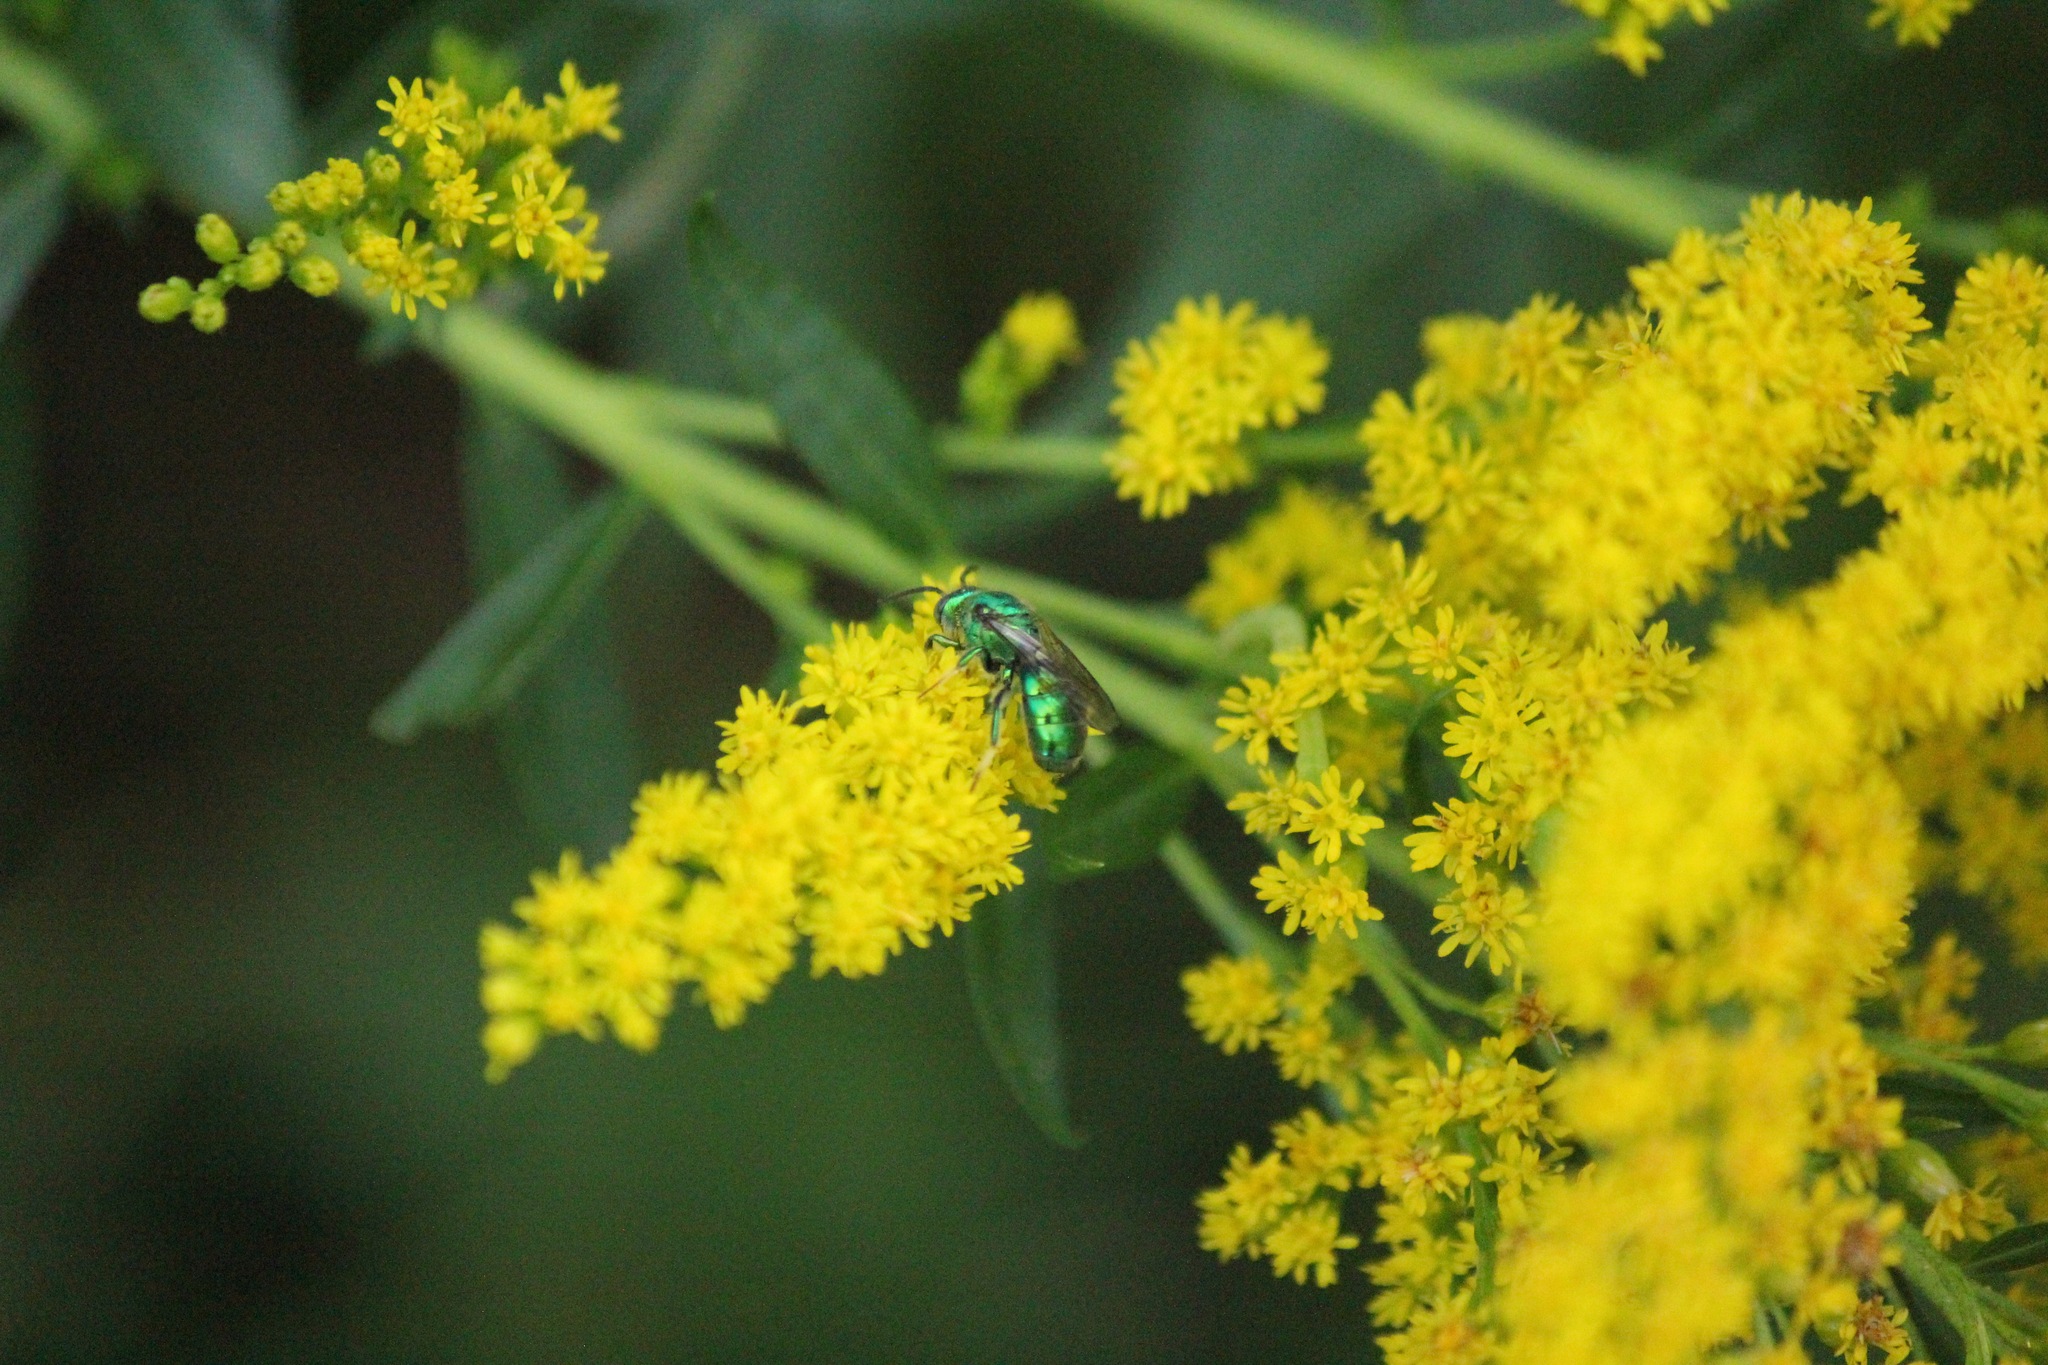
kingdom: Animalia
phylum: Arthropoda
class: Insecta
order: Hymenoptera
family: Halictidae
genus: Augochloropsis
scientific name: Augochloropsis viridula
